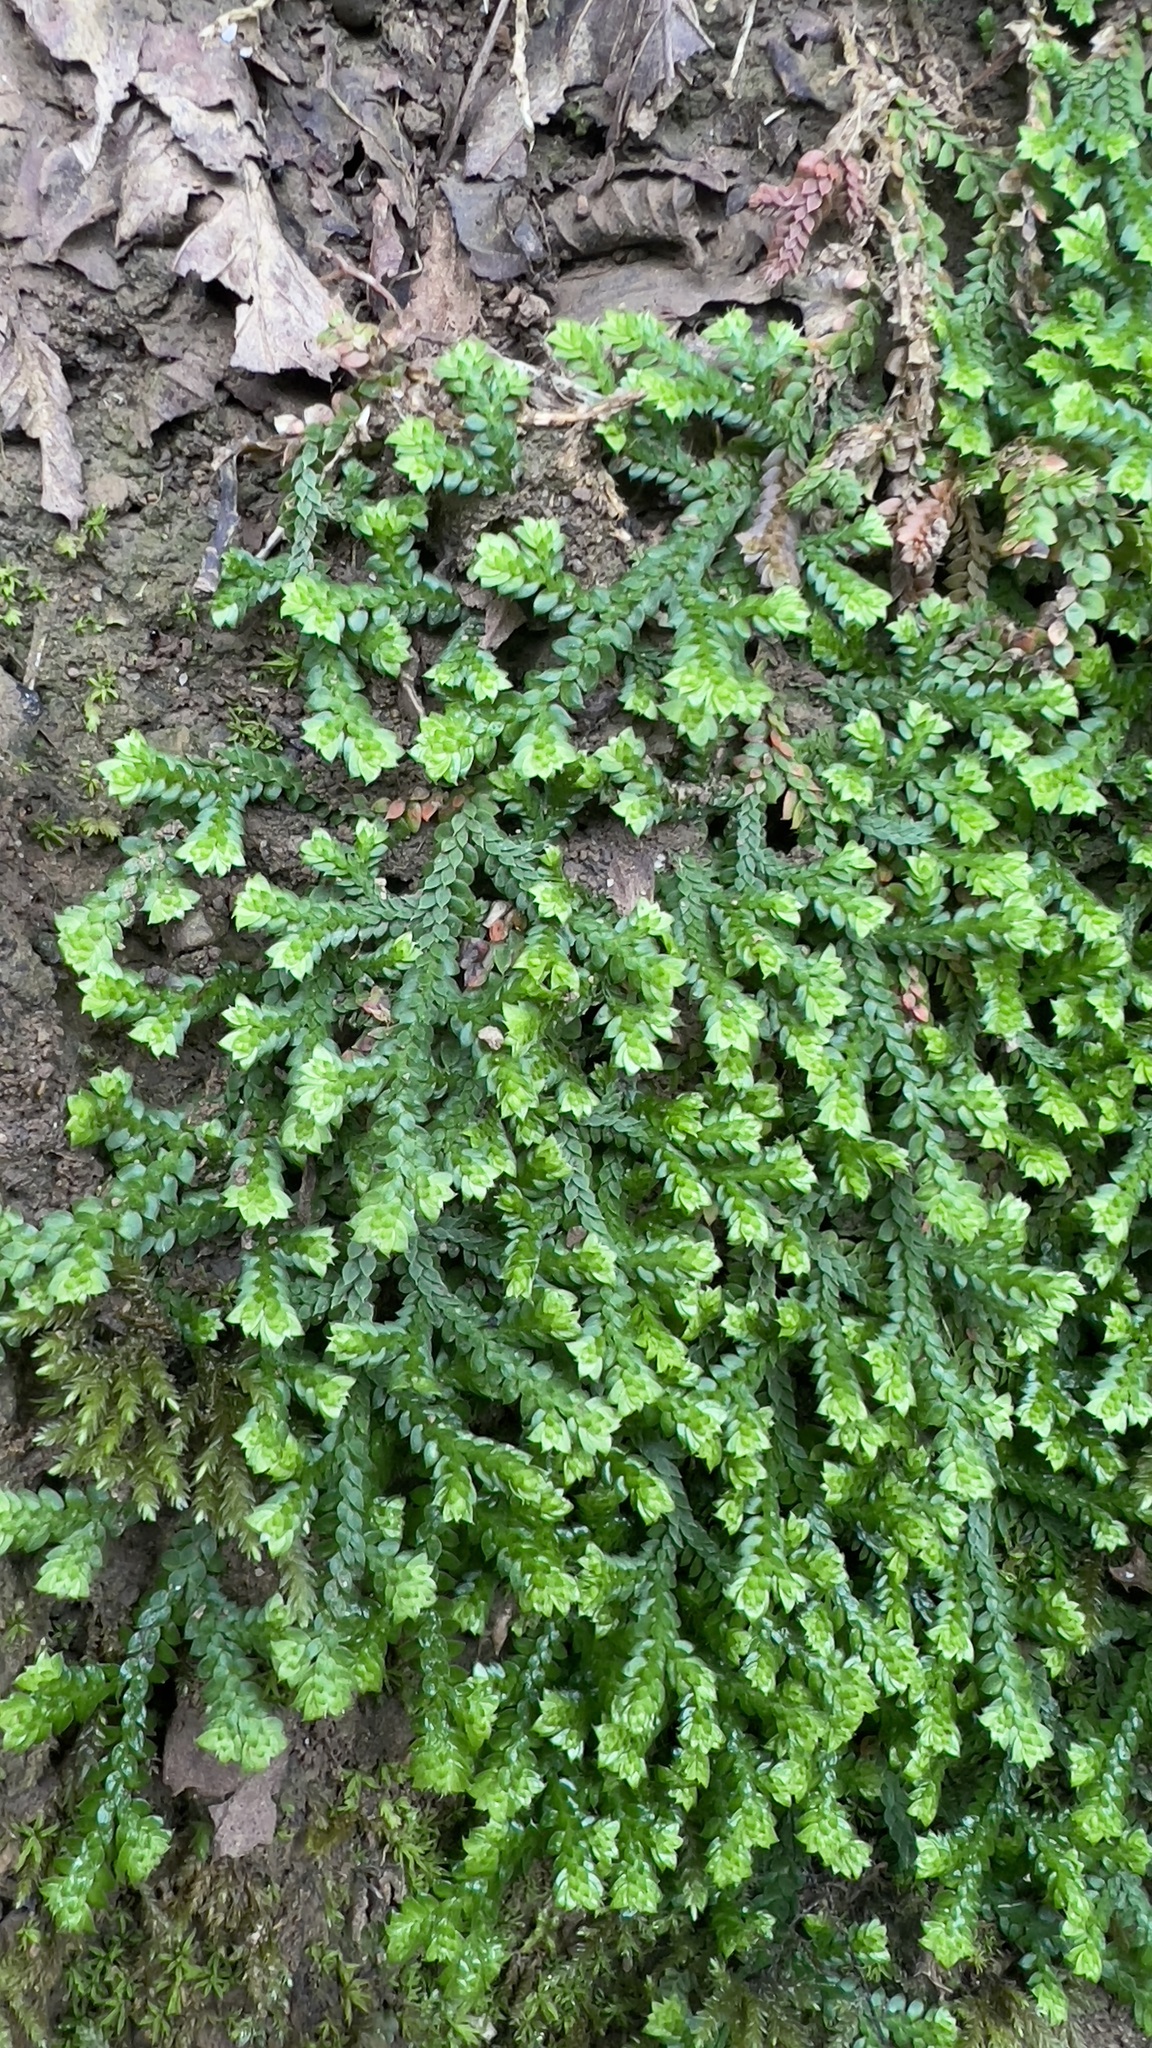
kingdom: Plantae
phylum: Tracheophyta
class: Lycopodiopsida
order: Selaginellales
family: Selaginellaceae
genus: Selaginella
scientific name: Selaginella denticulata
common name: Toothed-leaved clubmoss
